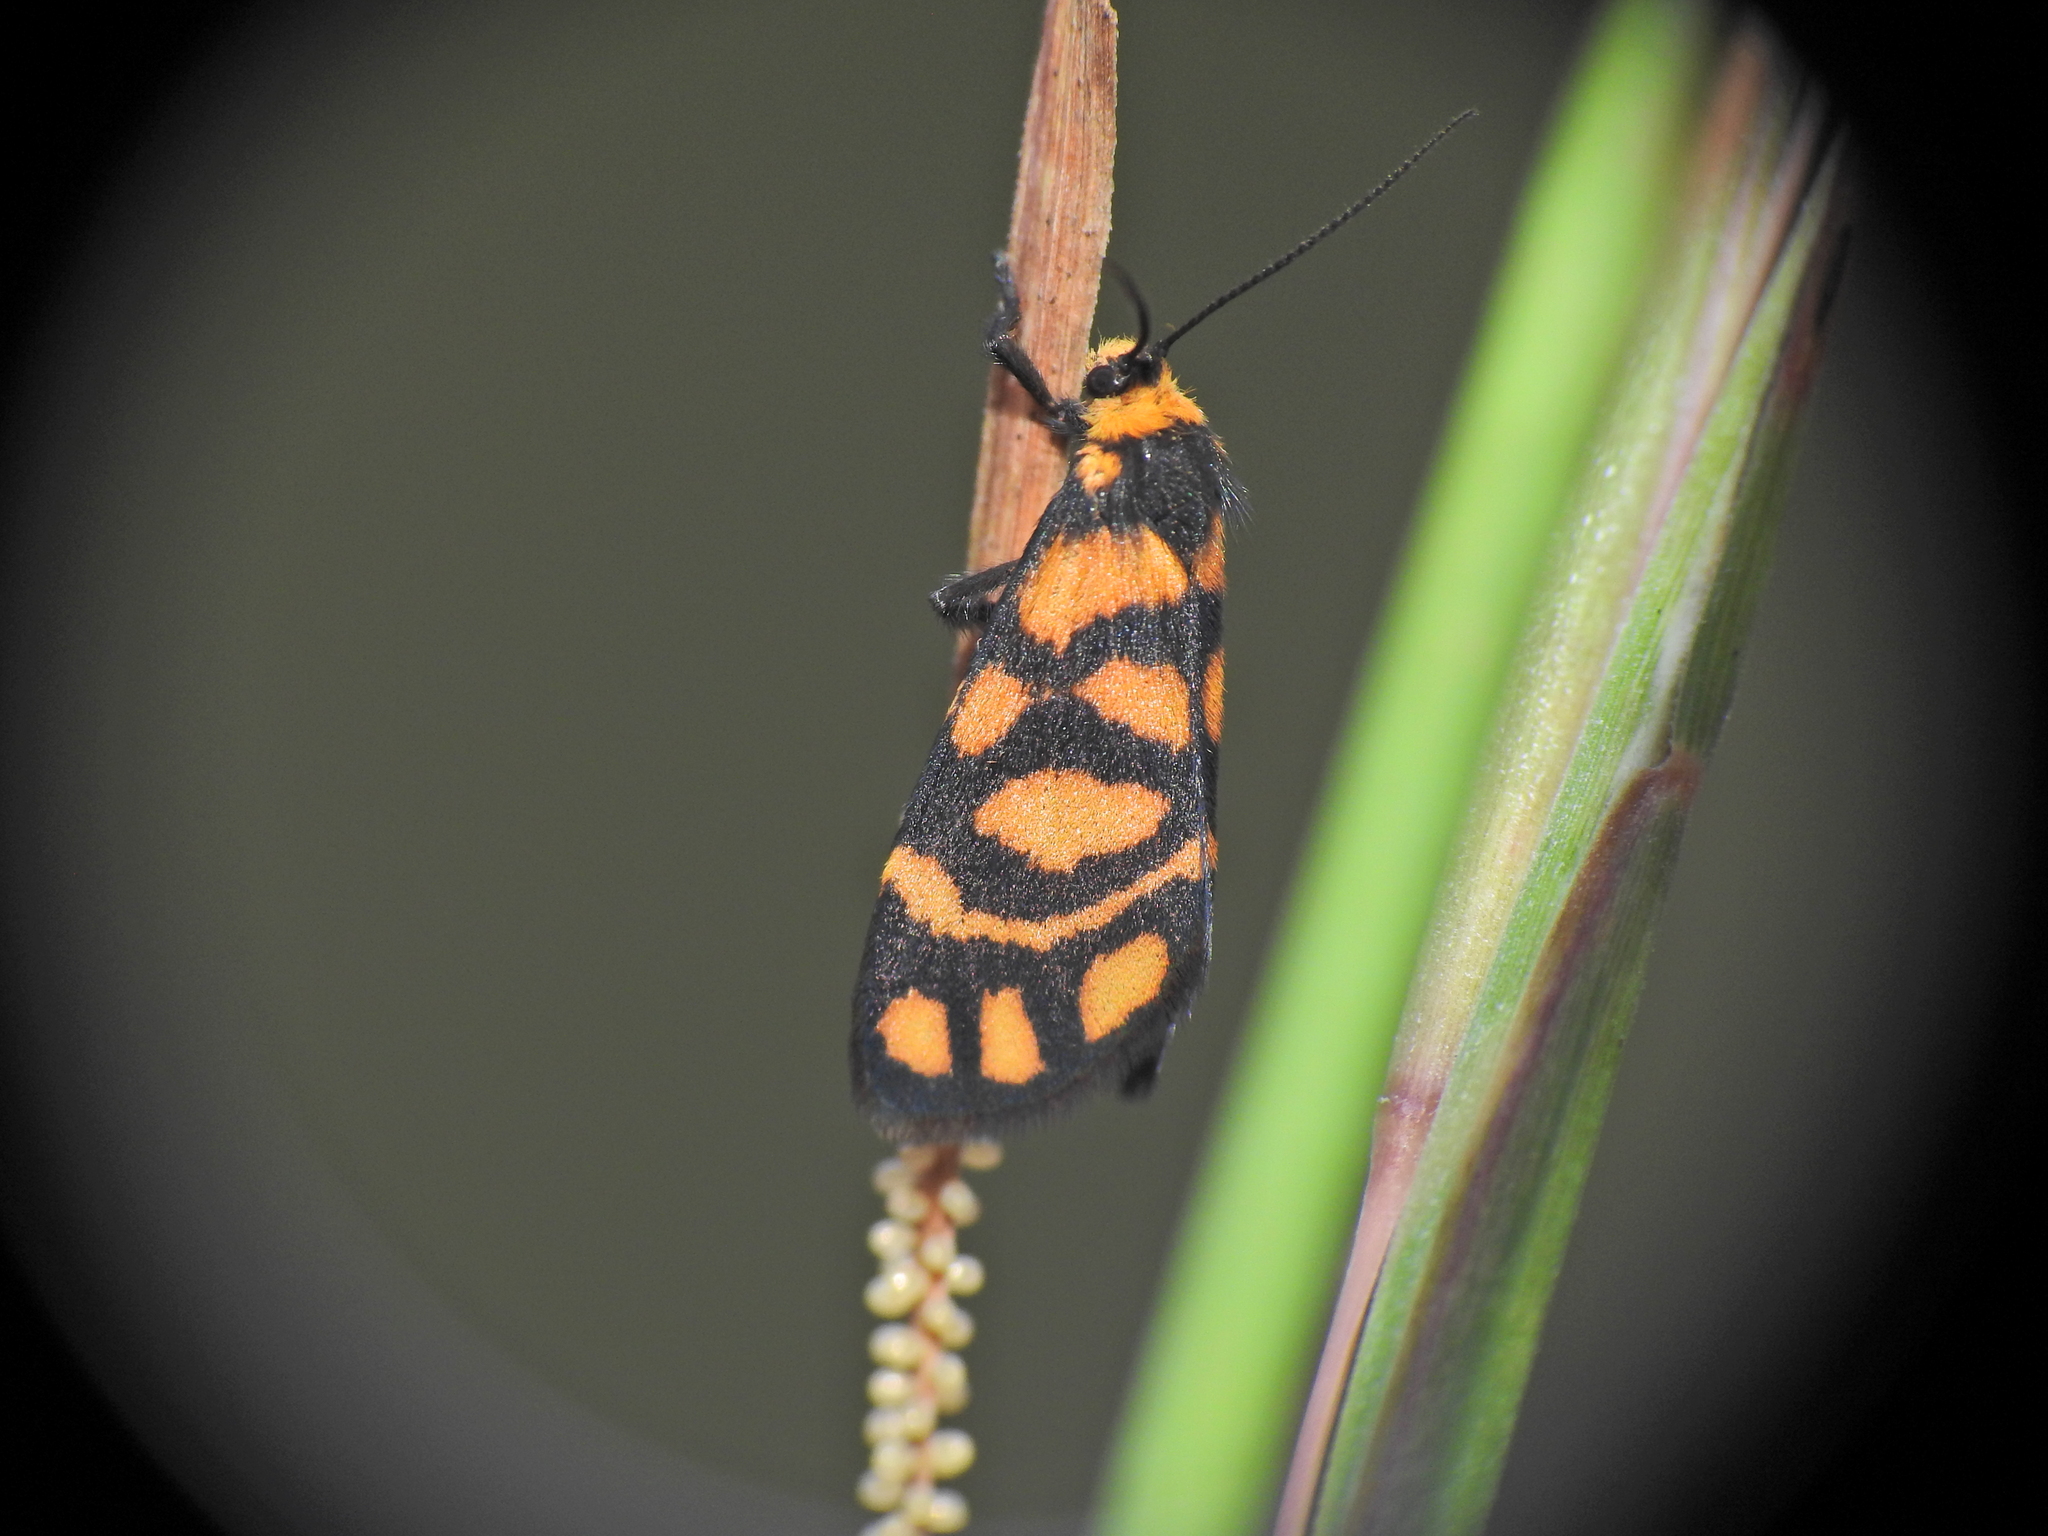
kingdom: Animalia
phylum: Arthropoda
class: Insecta
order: Lepidoptera
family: Erebidae
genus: Asura
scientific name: Asura lydia
